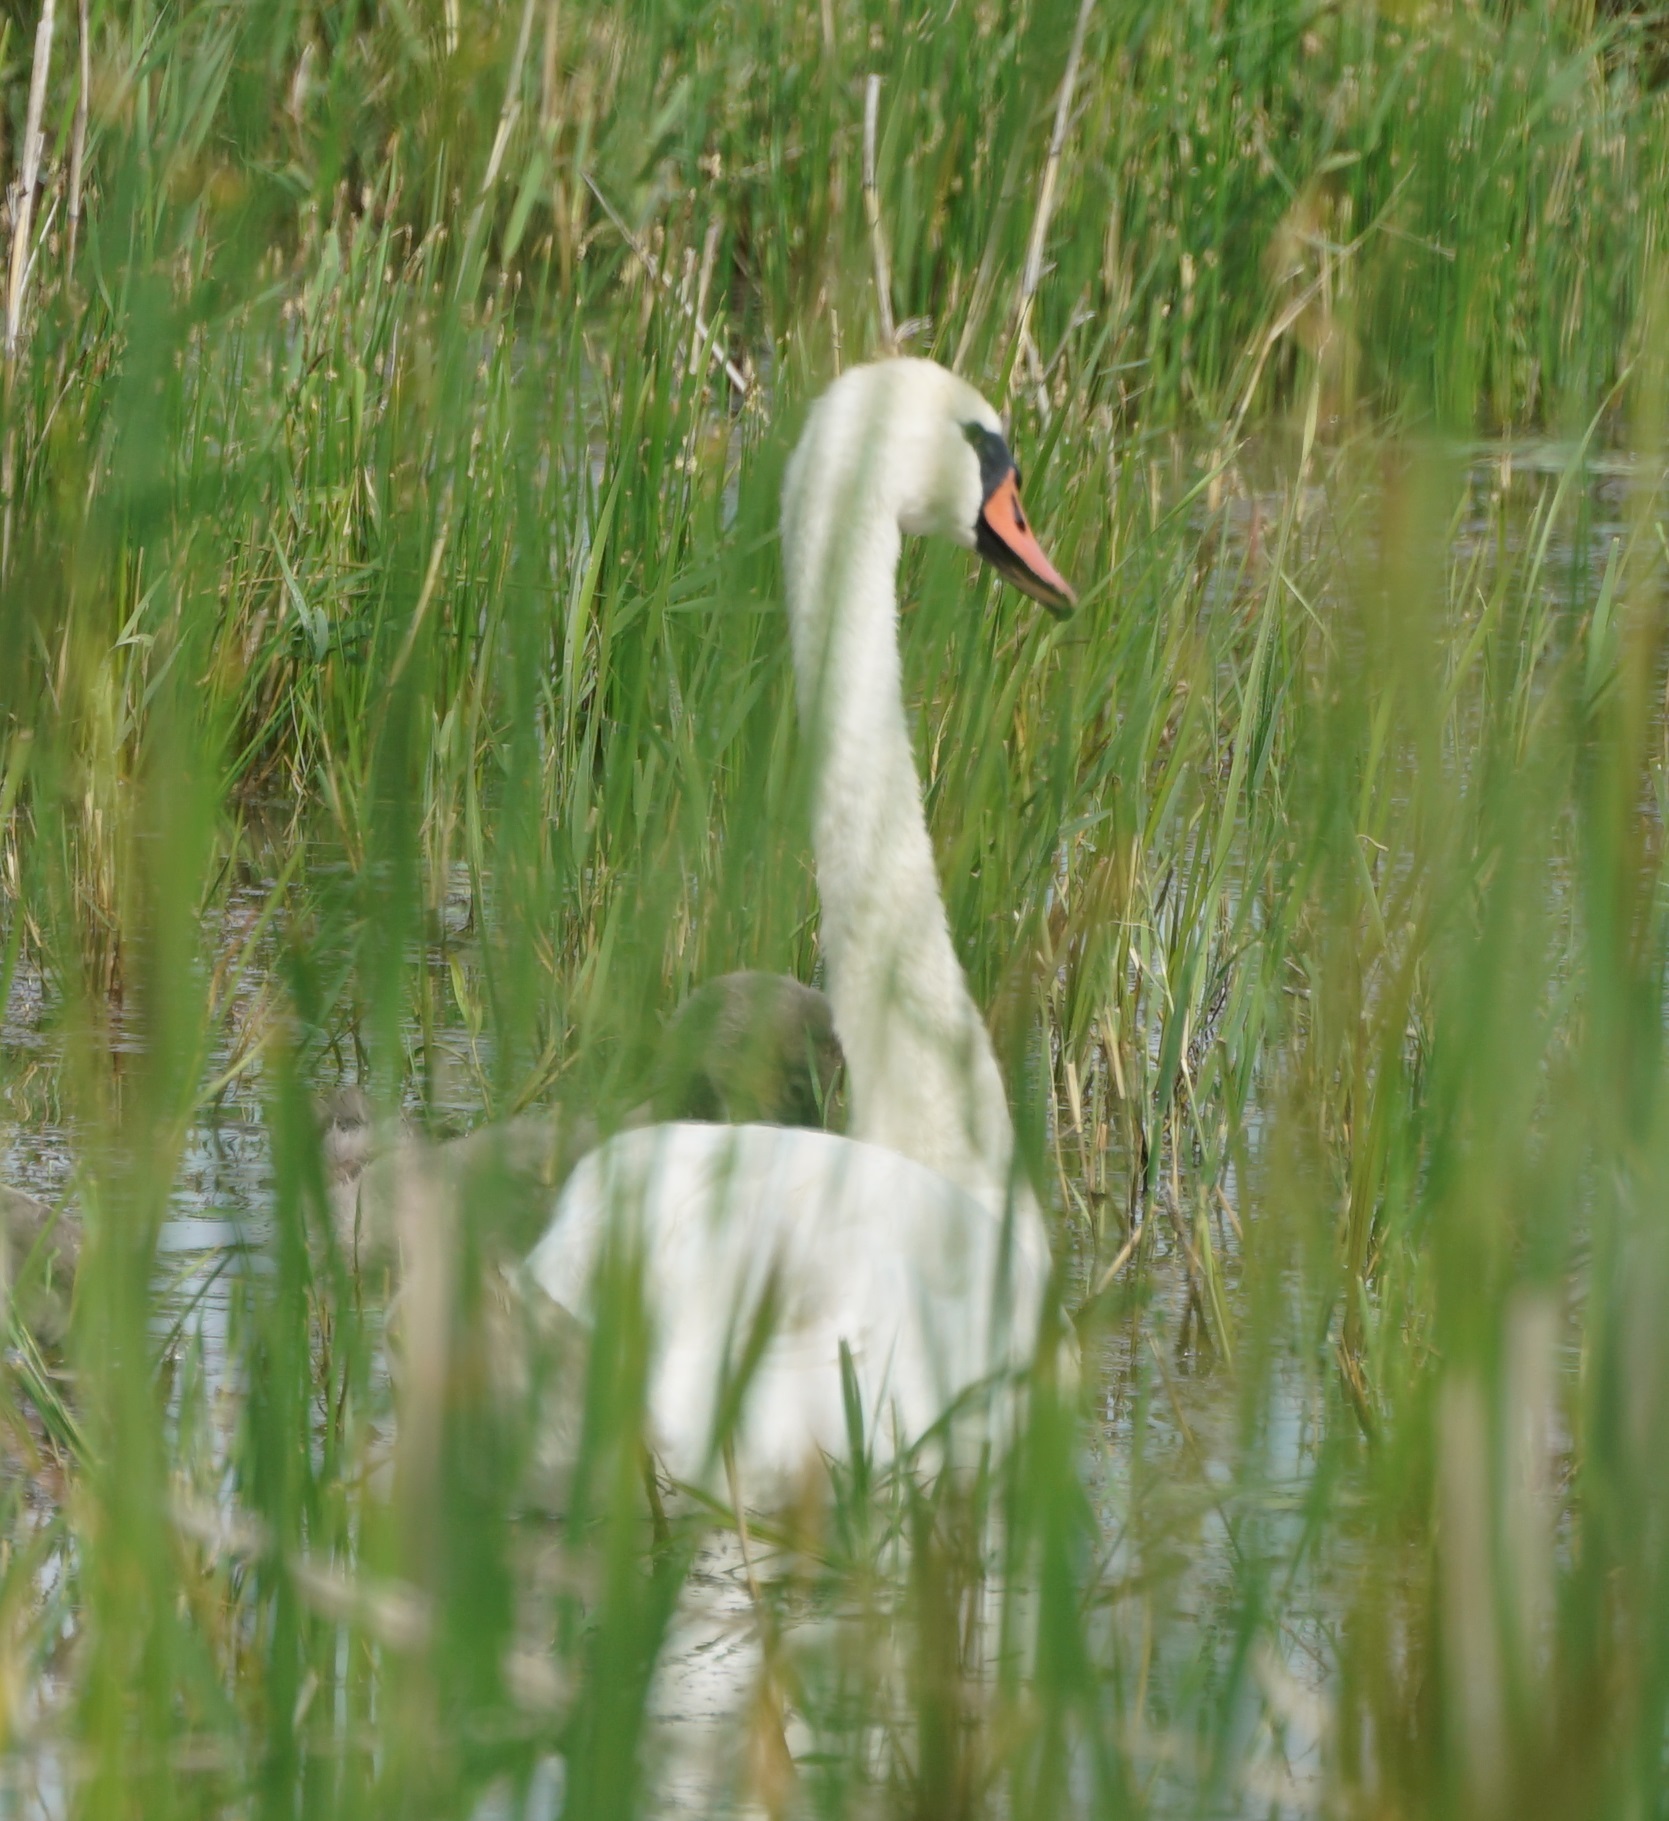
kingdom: Animalia
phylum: Chordata
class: Aves
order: Anseriformes
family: Anatidae
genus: Cygnus
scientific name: Cygnus olor
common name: Mute swan
